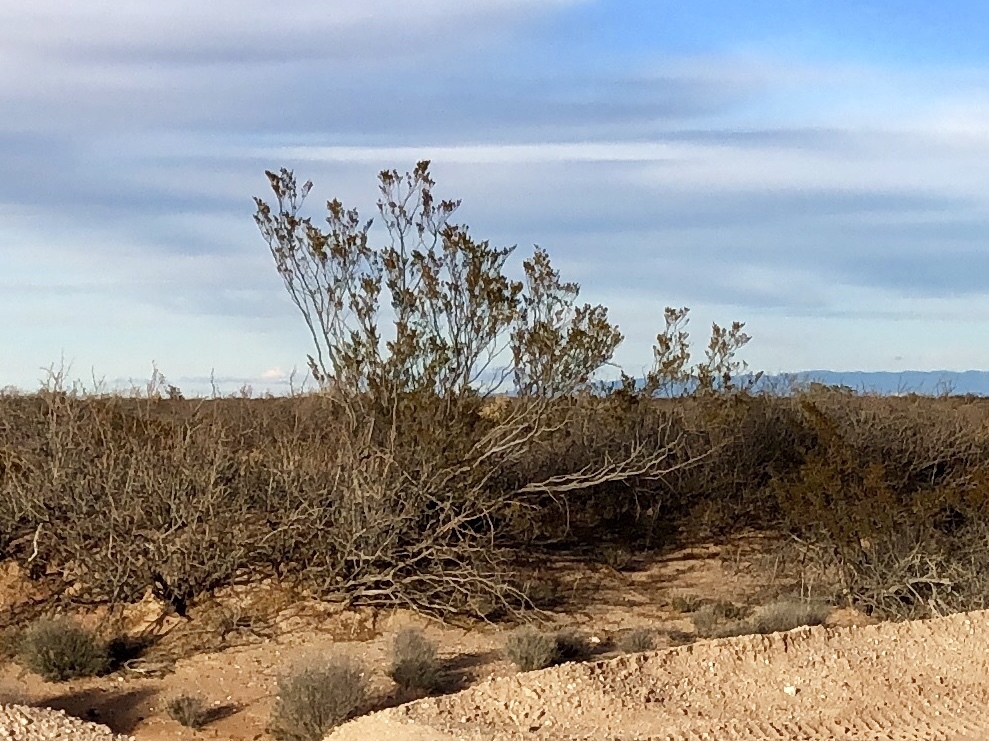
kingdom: Plantae
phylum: Tracheophyta
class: Magnoliopsida
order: Zygophyllales
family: Zygophyllaceae
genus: Larrea
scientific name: Larrea tridentata
